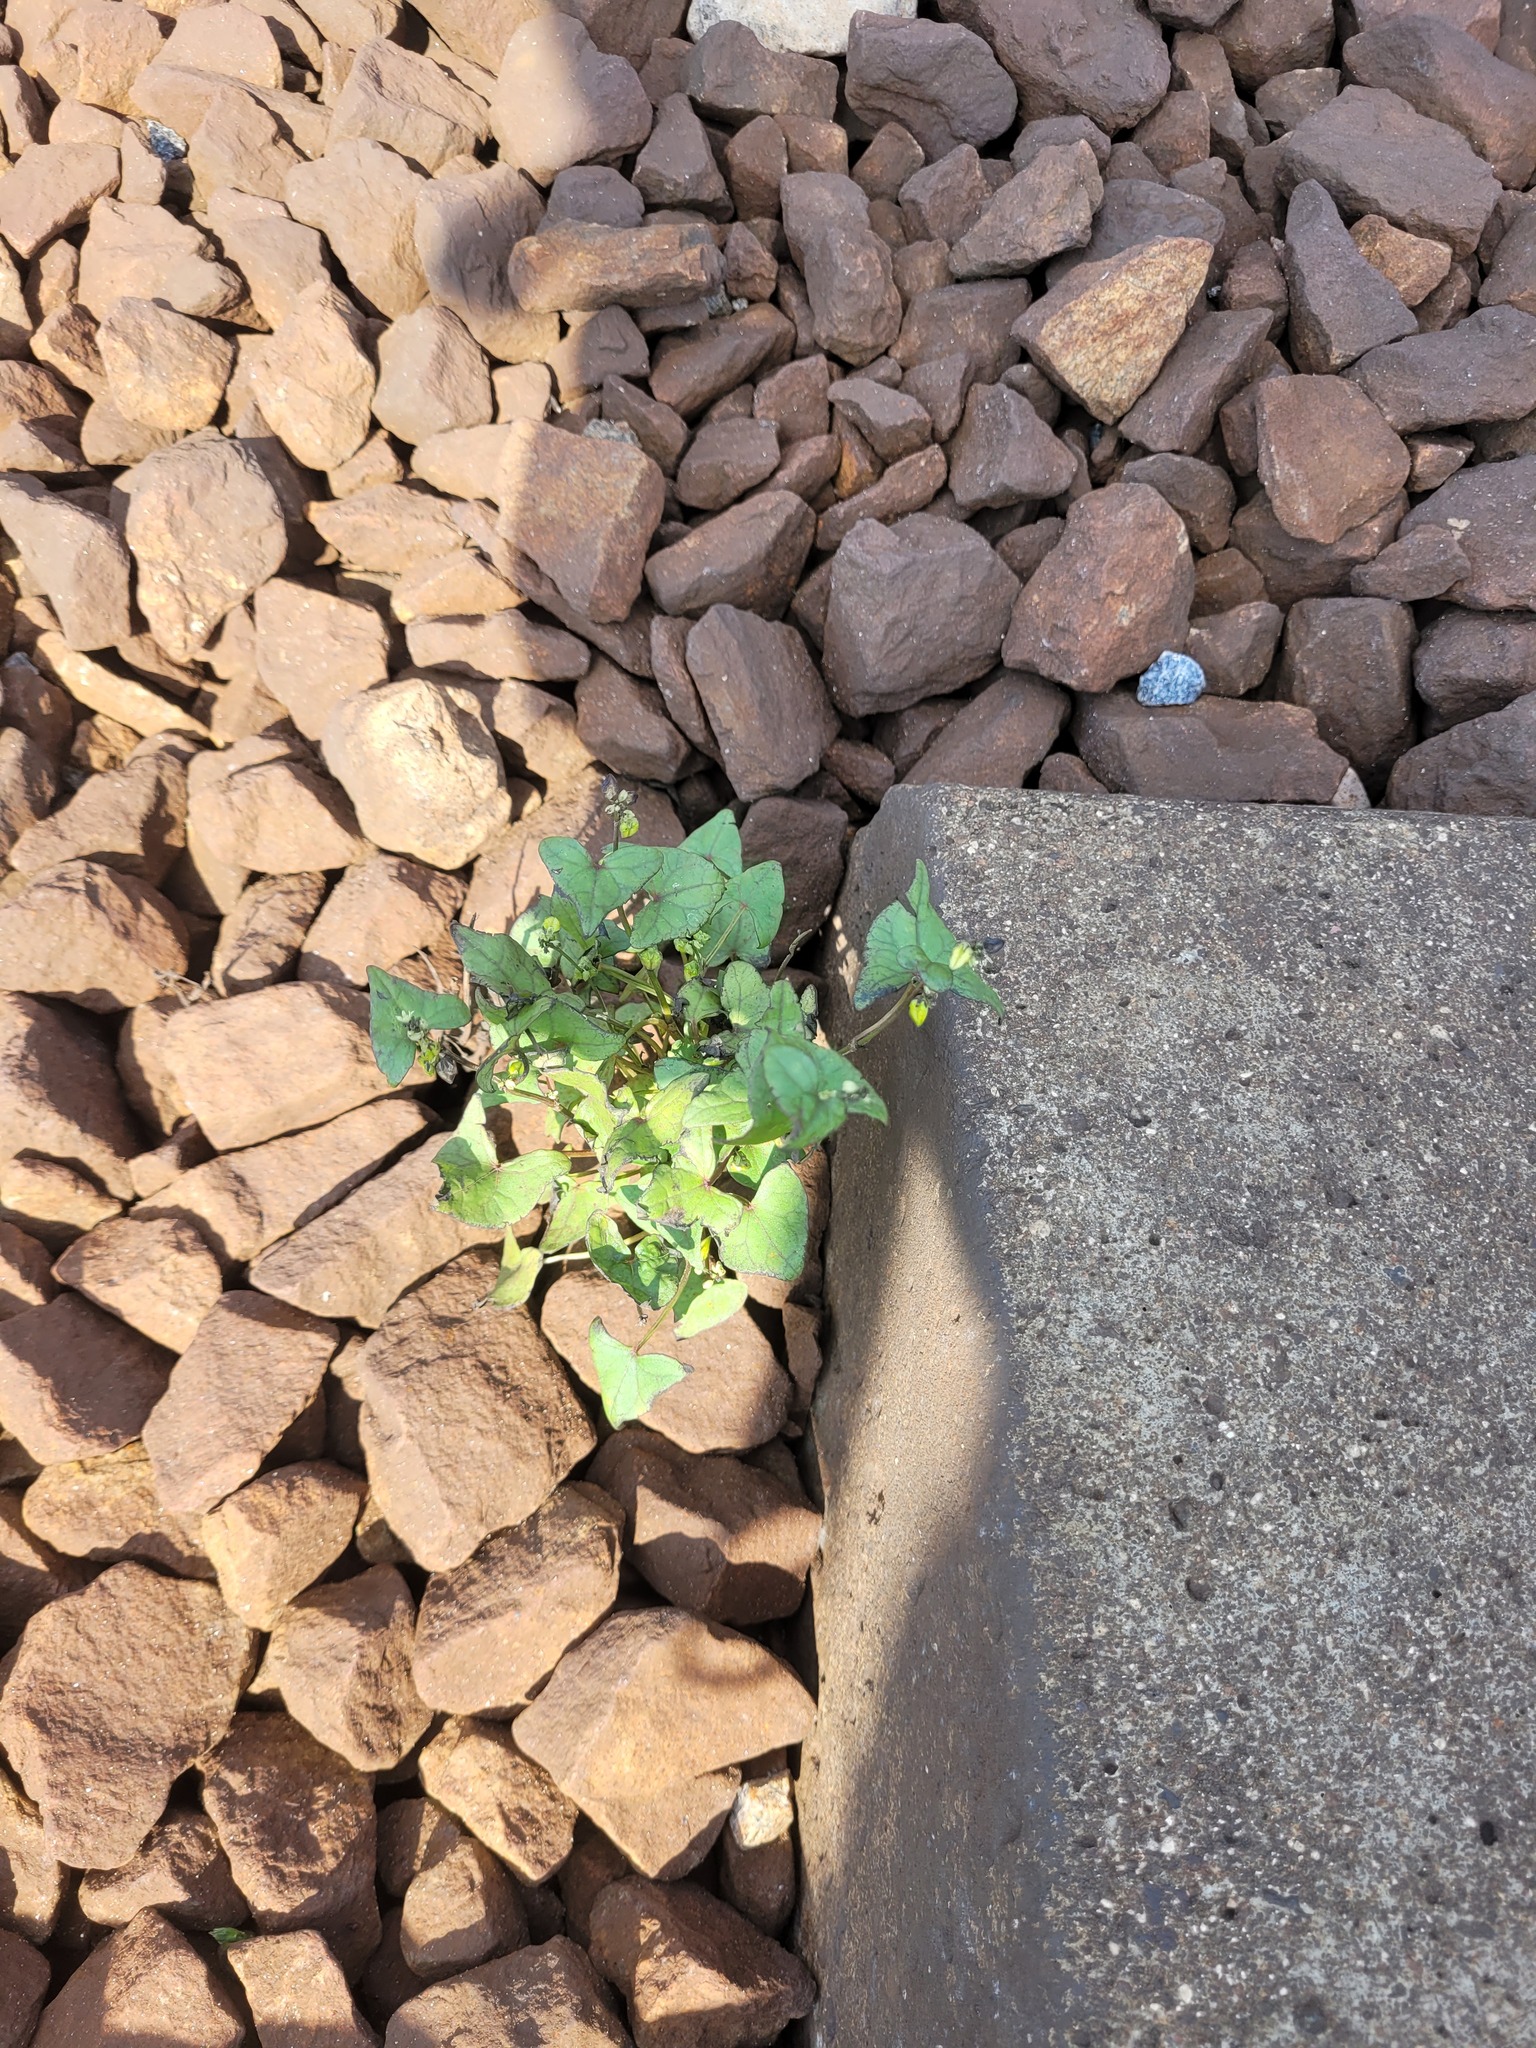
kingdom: Plantae
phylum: Tracheophyta
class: Magnoliopsida
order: Caryophyllales
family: Polygonaceae
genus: Fagopyrum
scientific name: Fagopyrum tataricum
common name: Green buckwheat
